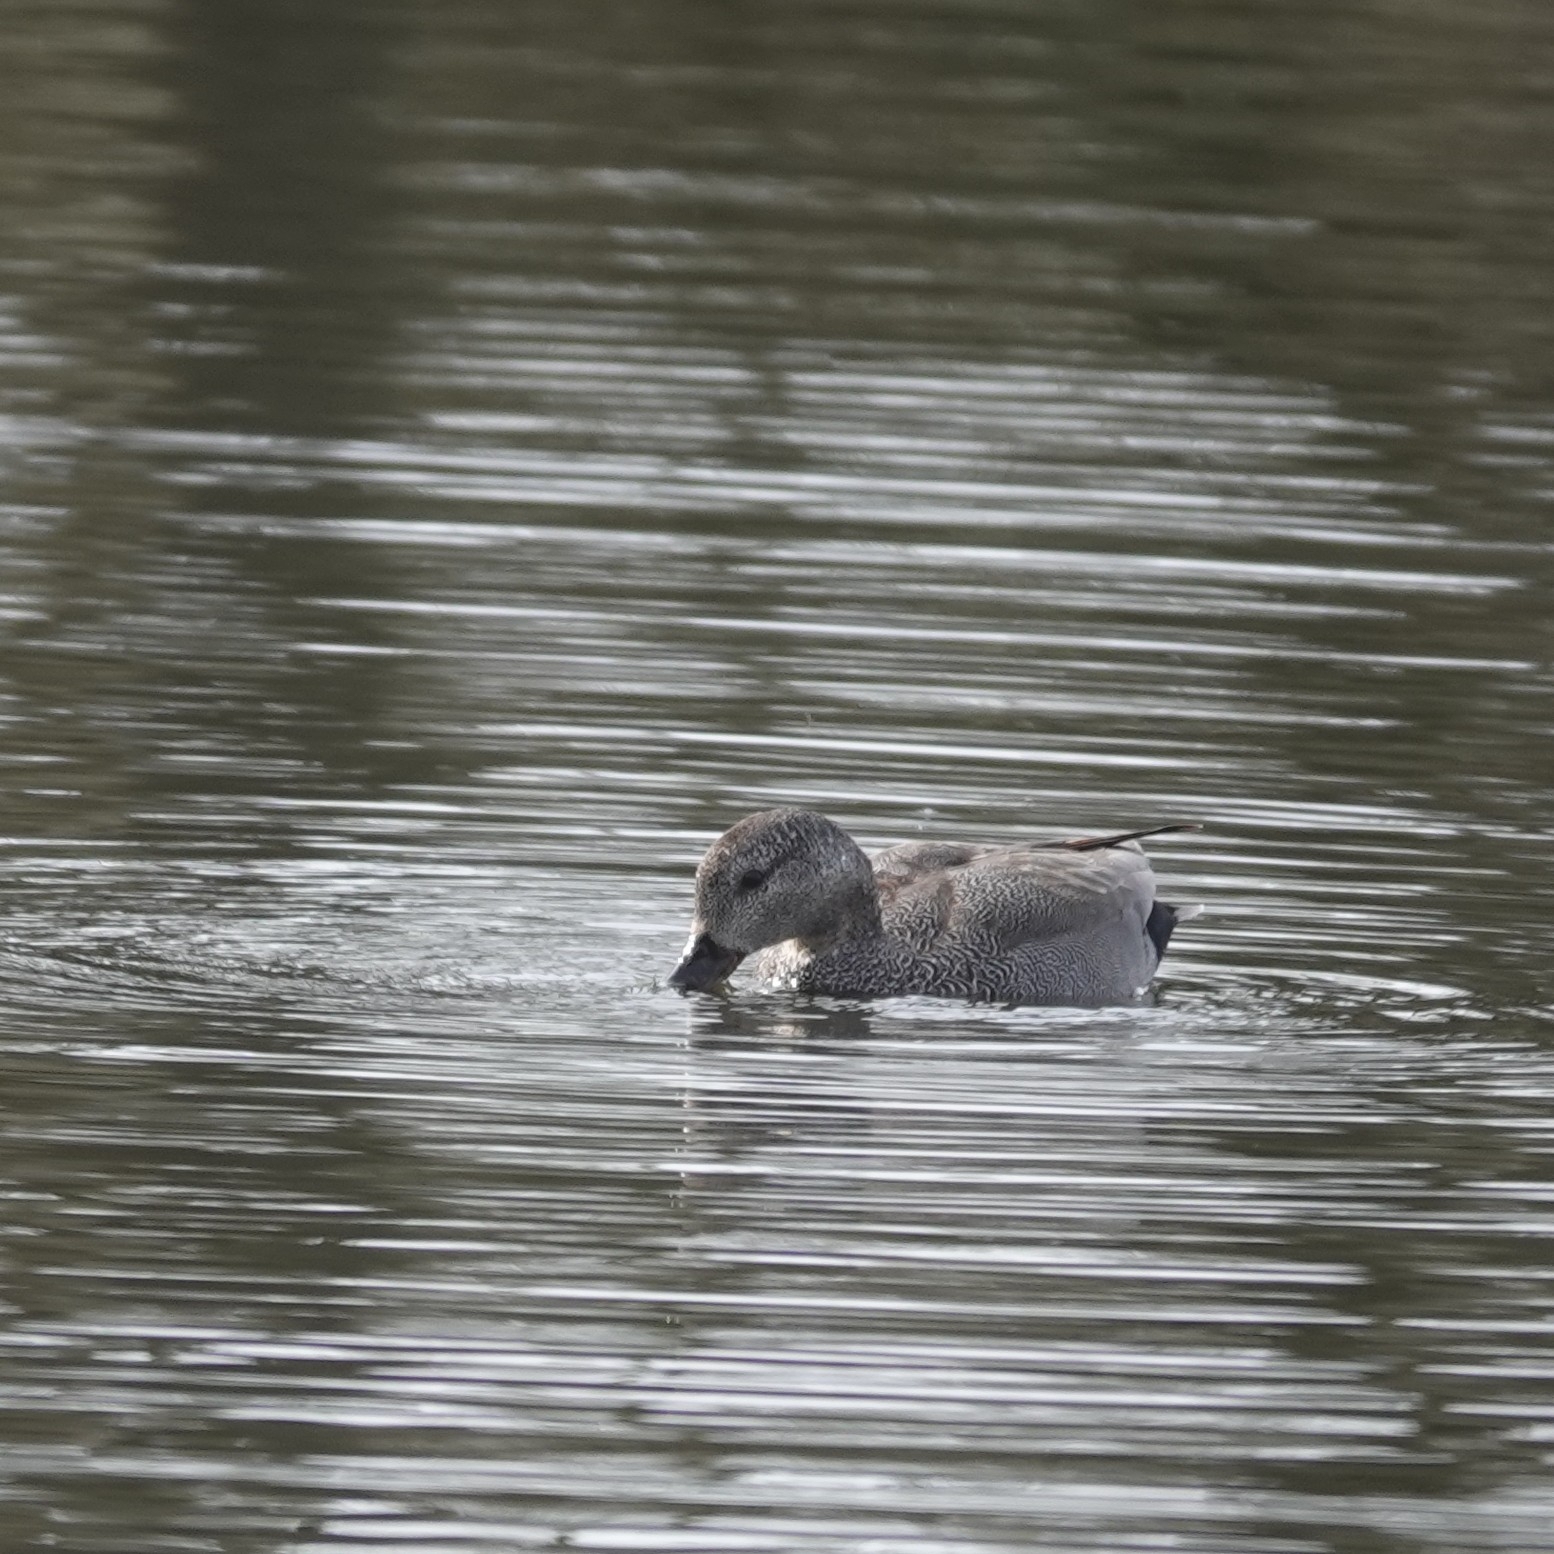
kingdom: Animalia
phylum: Chordata
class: Aves
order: Anseriformes
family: Anatidae
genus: Mareca
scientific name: Mareca strepera
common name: Gadwall
